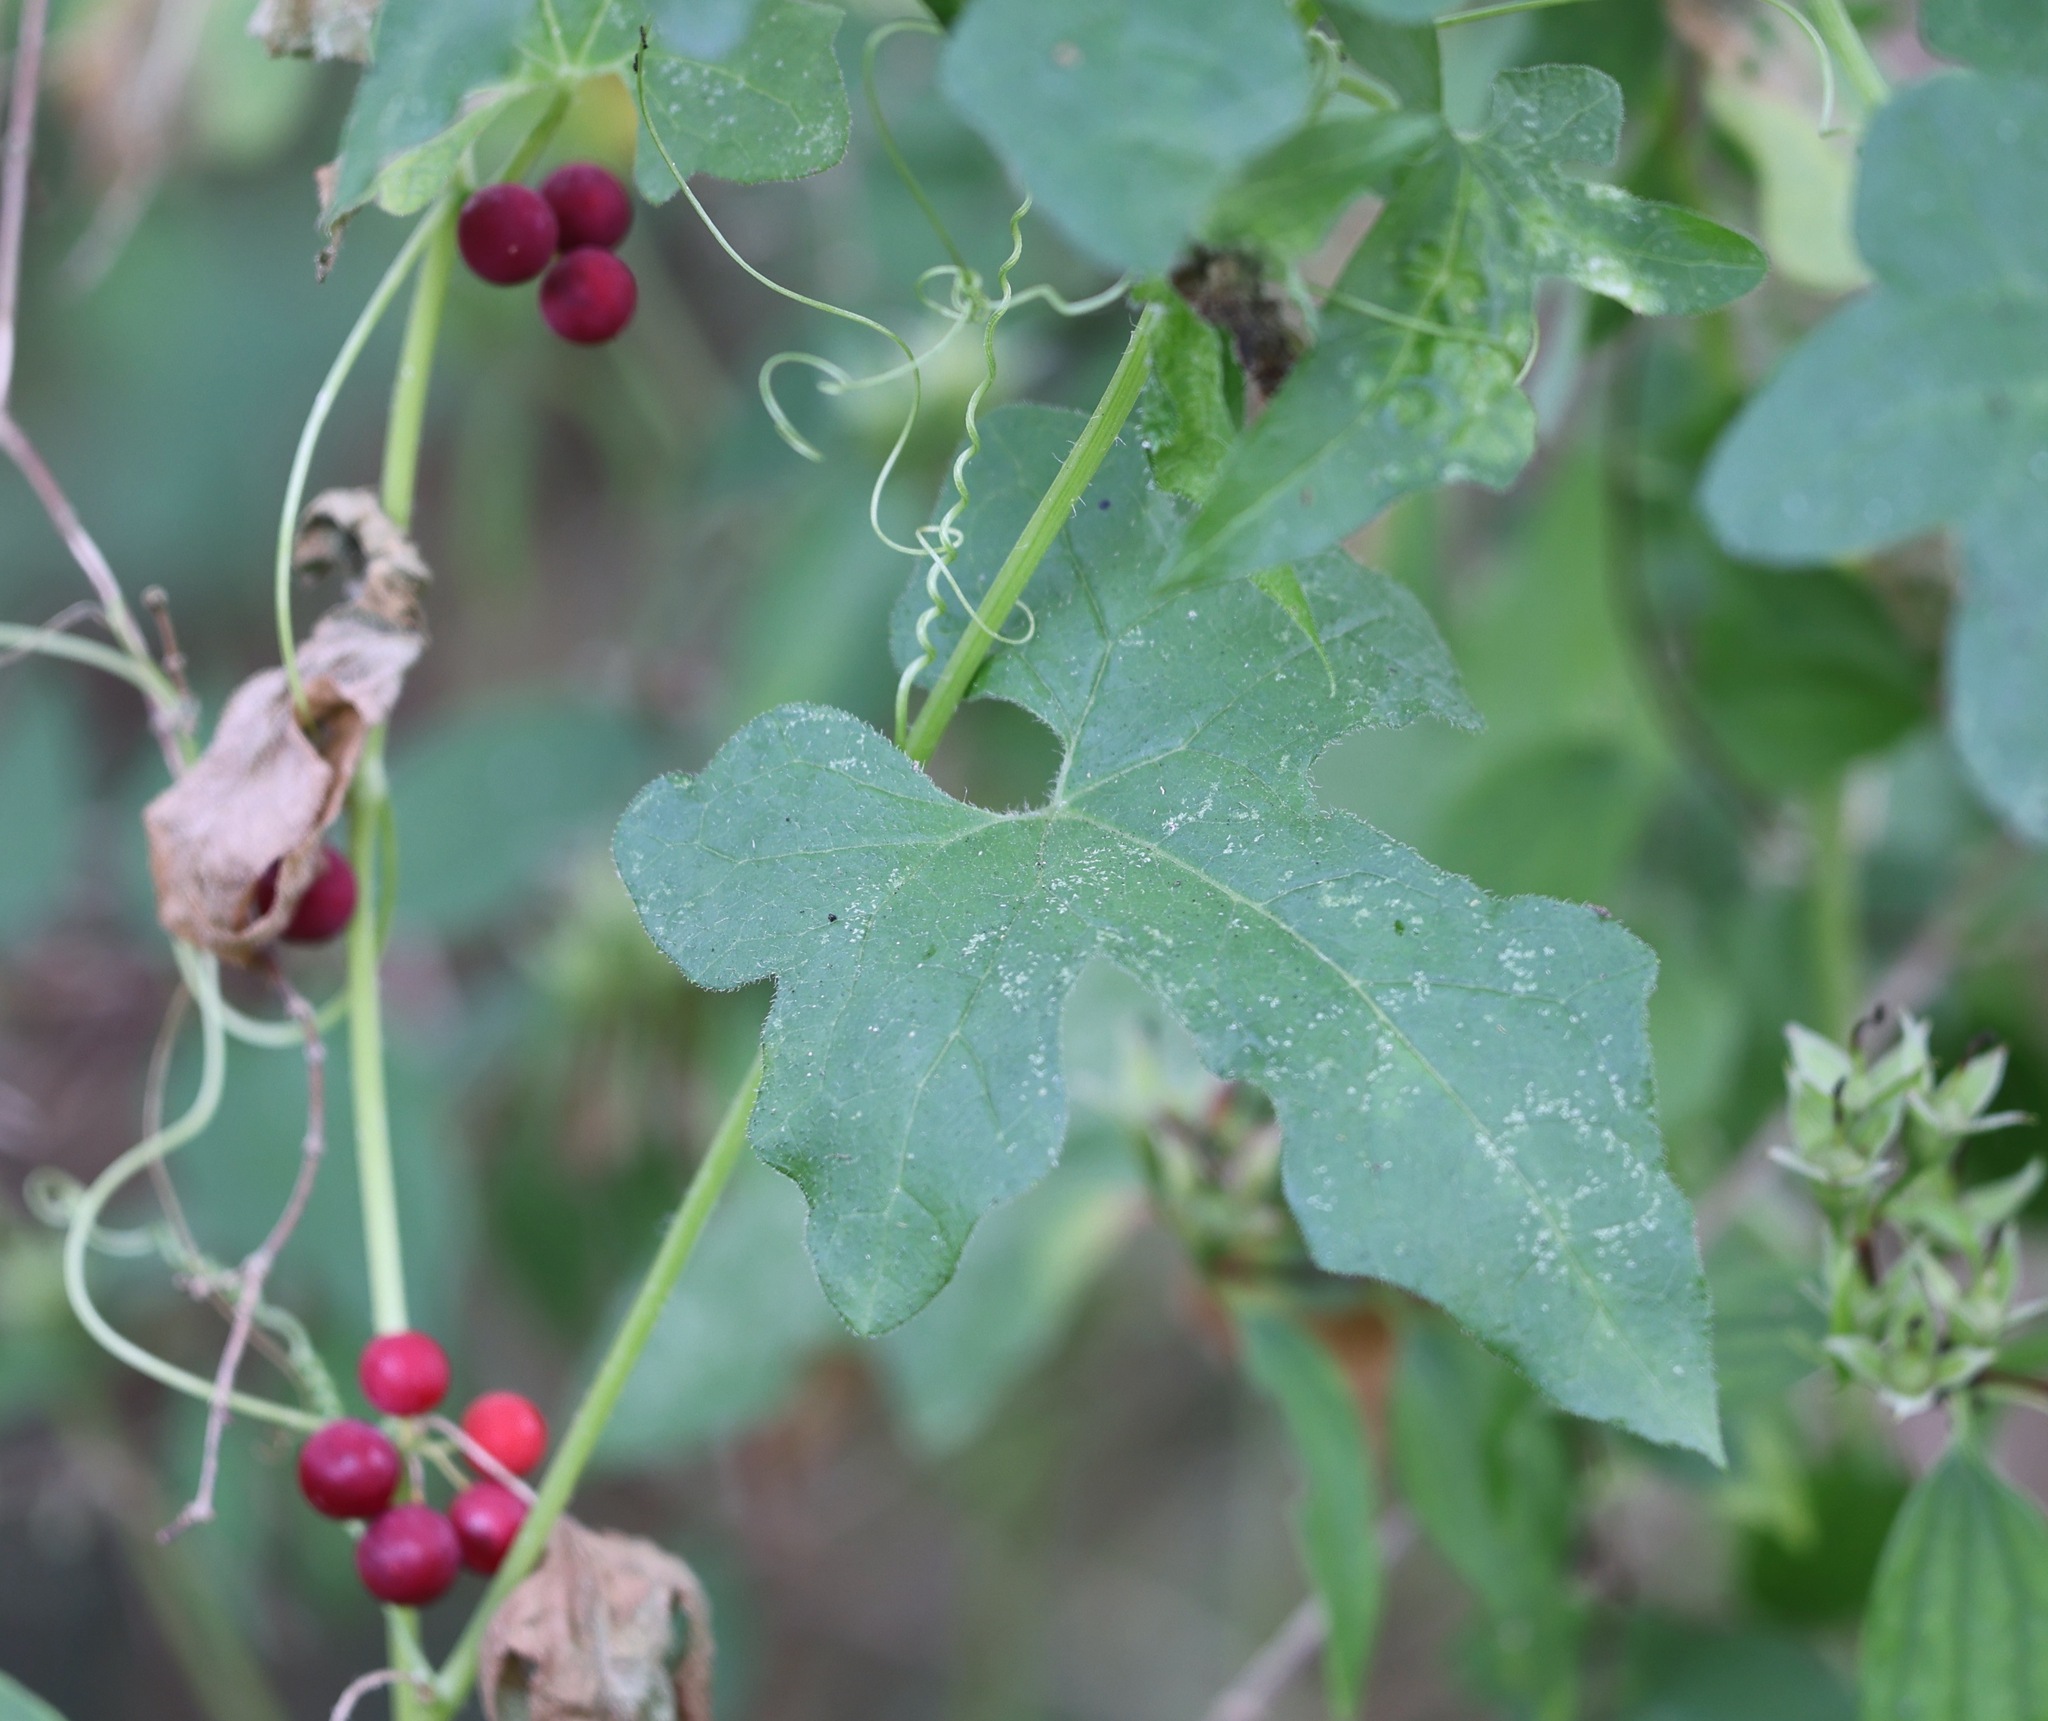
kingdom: Plantae
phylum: Tracheophyta
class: Magnoliopsida
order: Cucurbitales
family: Cucurbitaceae
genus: Bryonia
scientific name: Bryonia cretica
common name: Cretan bryony
